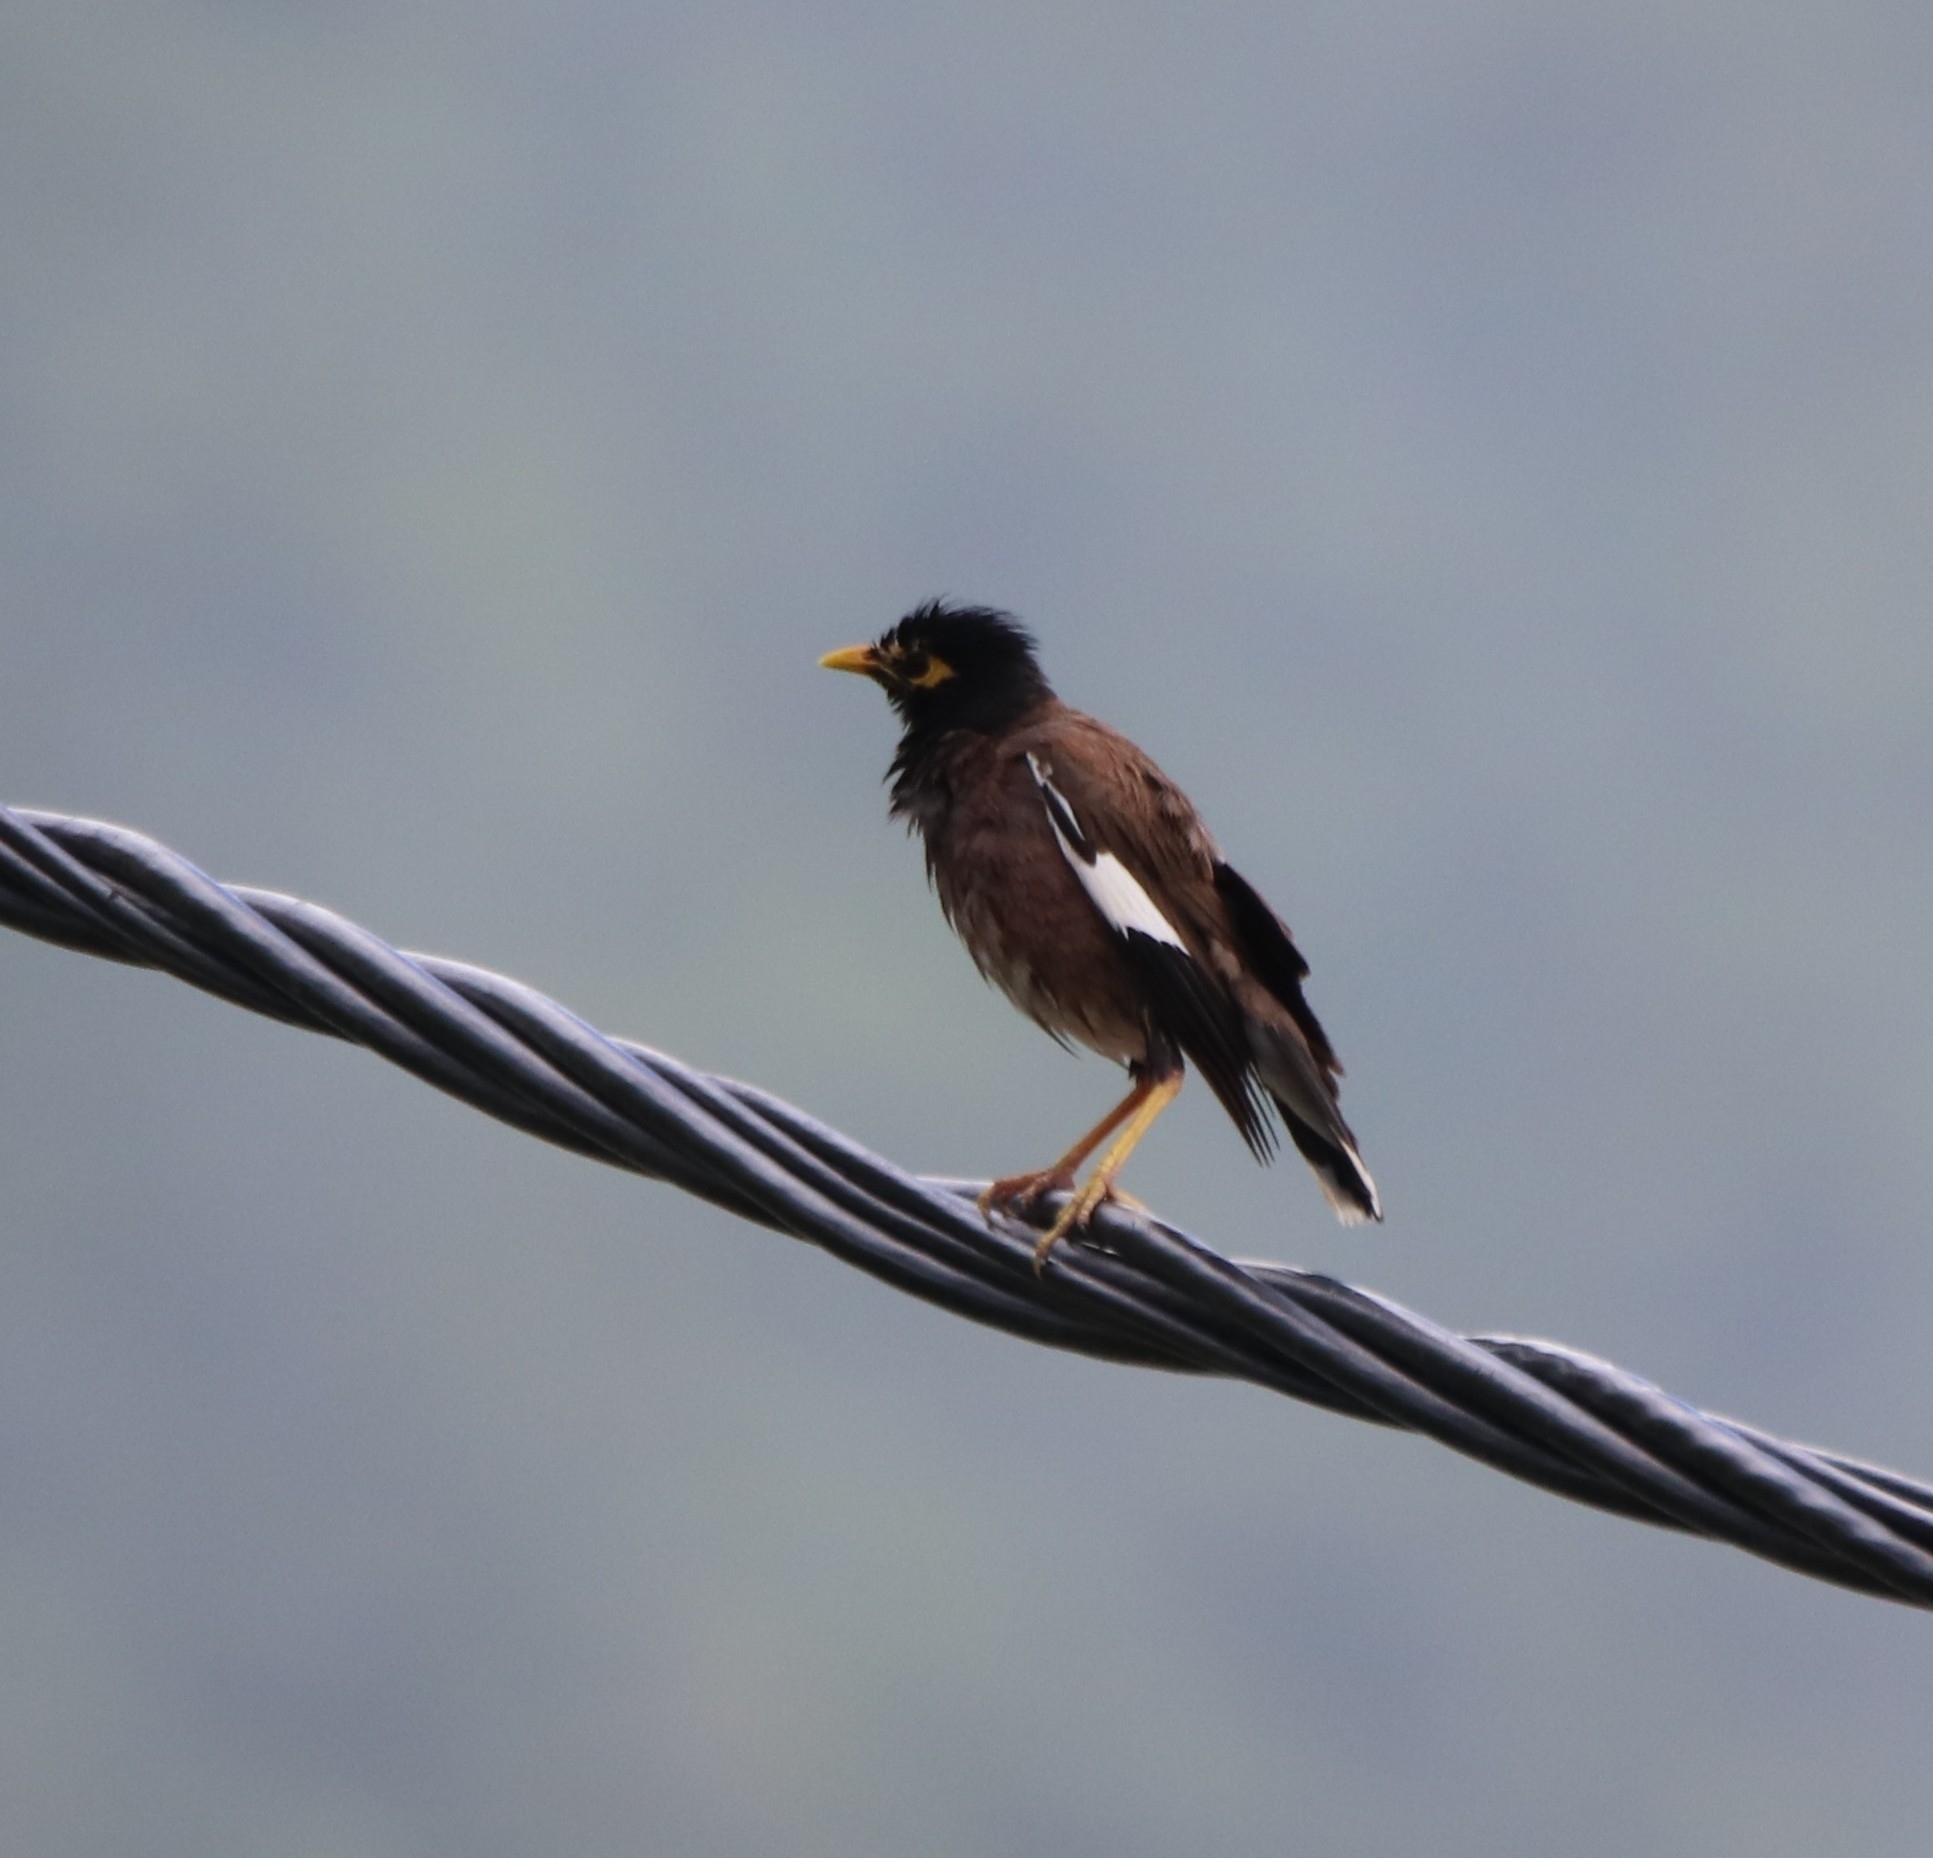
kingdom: Animalia
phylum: Chordata
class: Aves
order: Passeriformes
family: Sturnidae
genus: Acridotheres
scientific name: Acridotheres tristis
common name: Common myna
